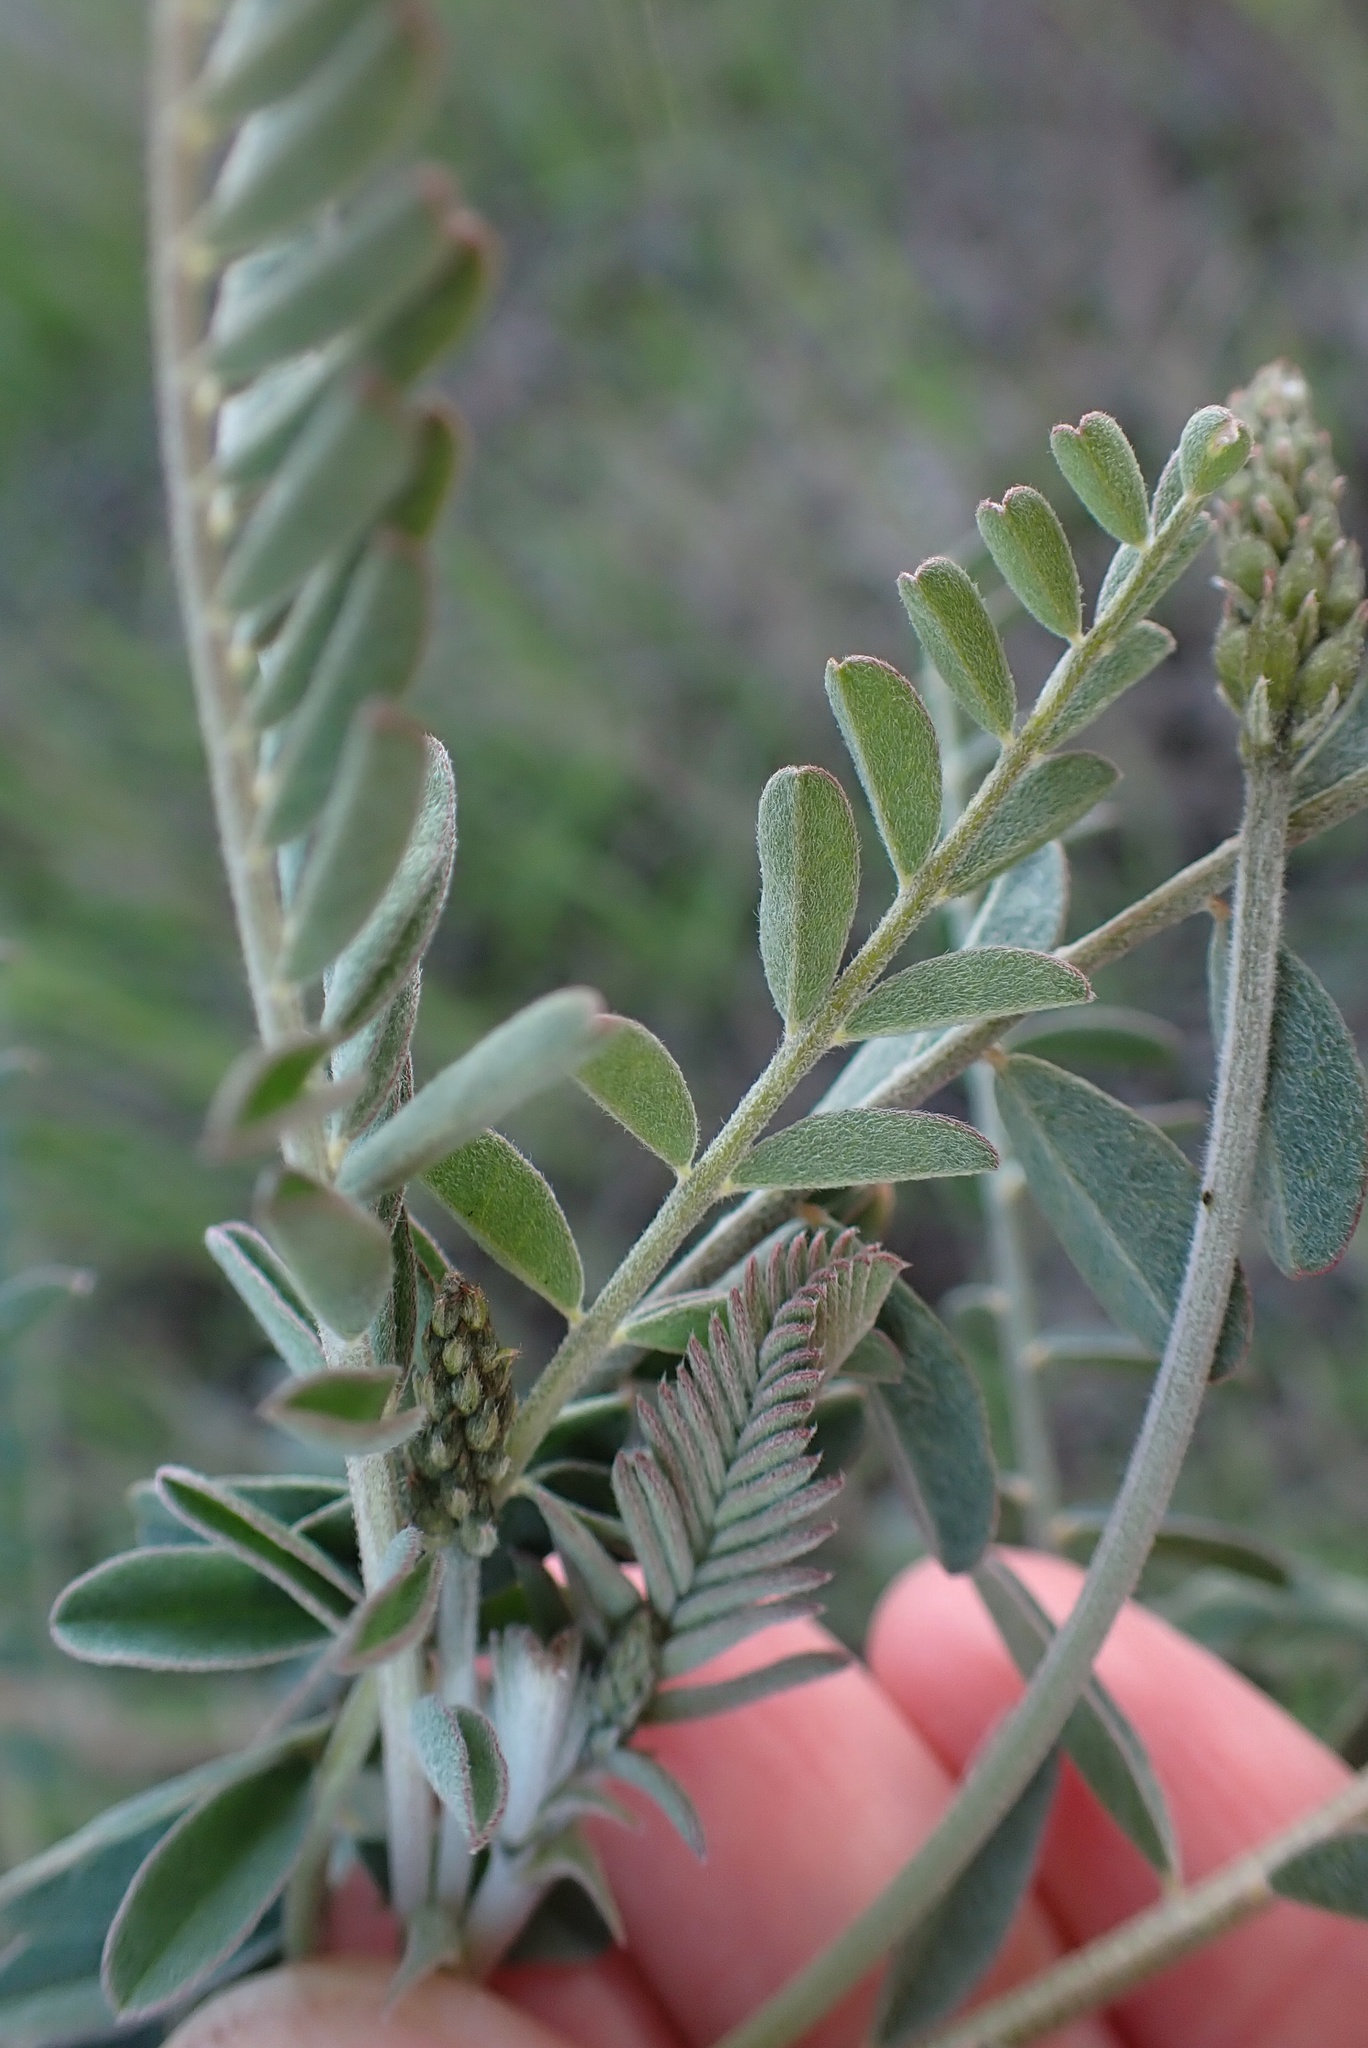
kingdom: Plantae
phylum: Tracheophyta
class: Magnoliopsida
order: Fabales
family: Fabaceae
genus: Astragalus
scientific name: Astragalus trichopodus
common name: Santa barbara milk-vetch
